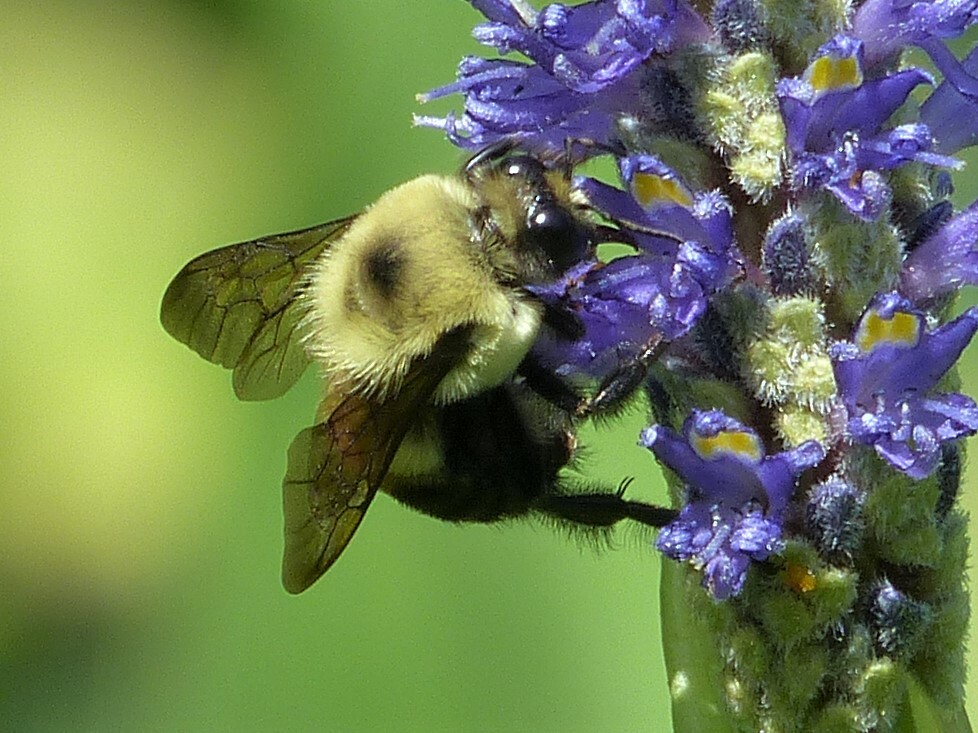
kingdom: Animalia
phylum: Arthropoda
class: Insecta
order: Hymenoptera
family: Apidae
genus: Bombus
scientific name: Bombus griseocollis
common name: Brown-belted bumble bee
